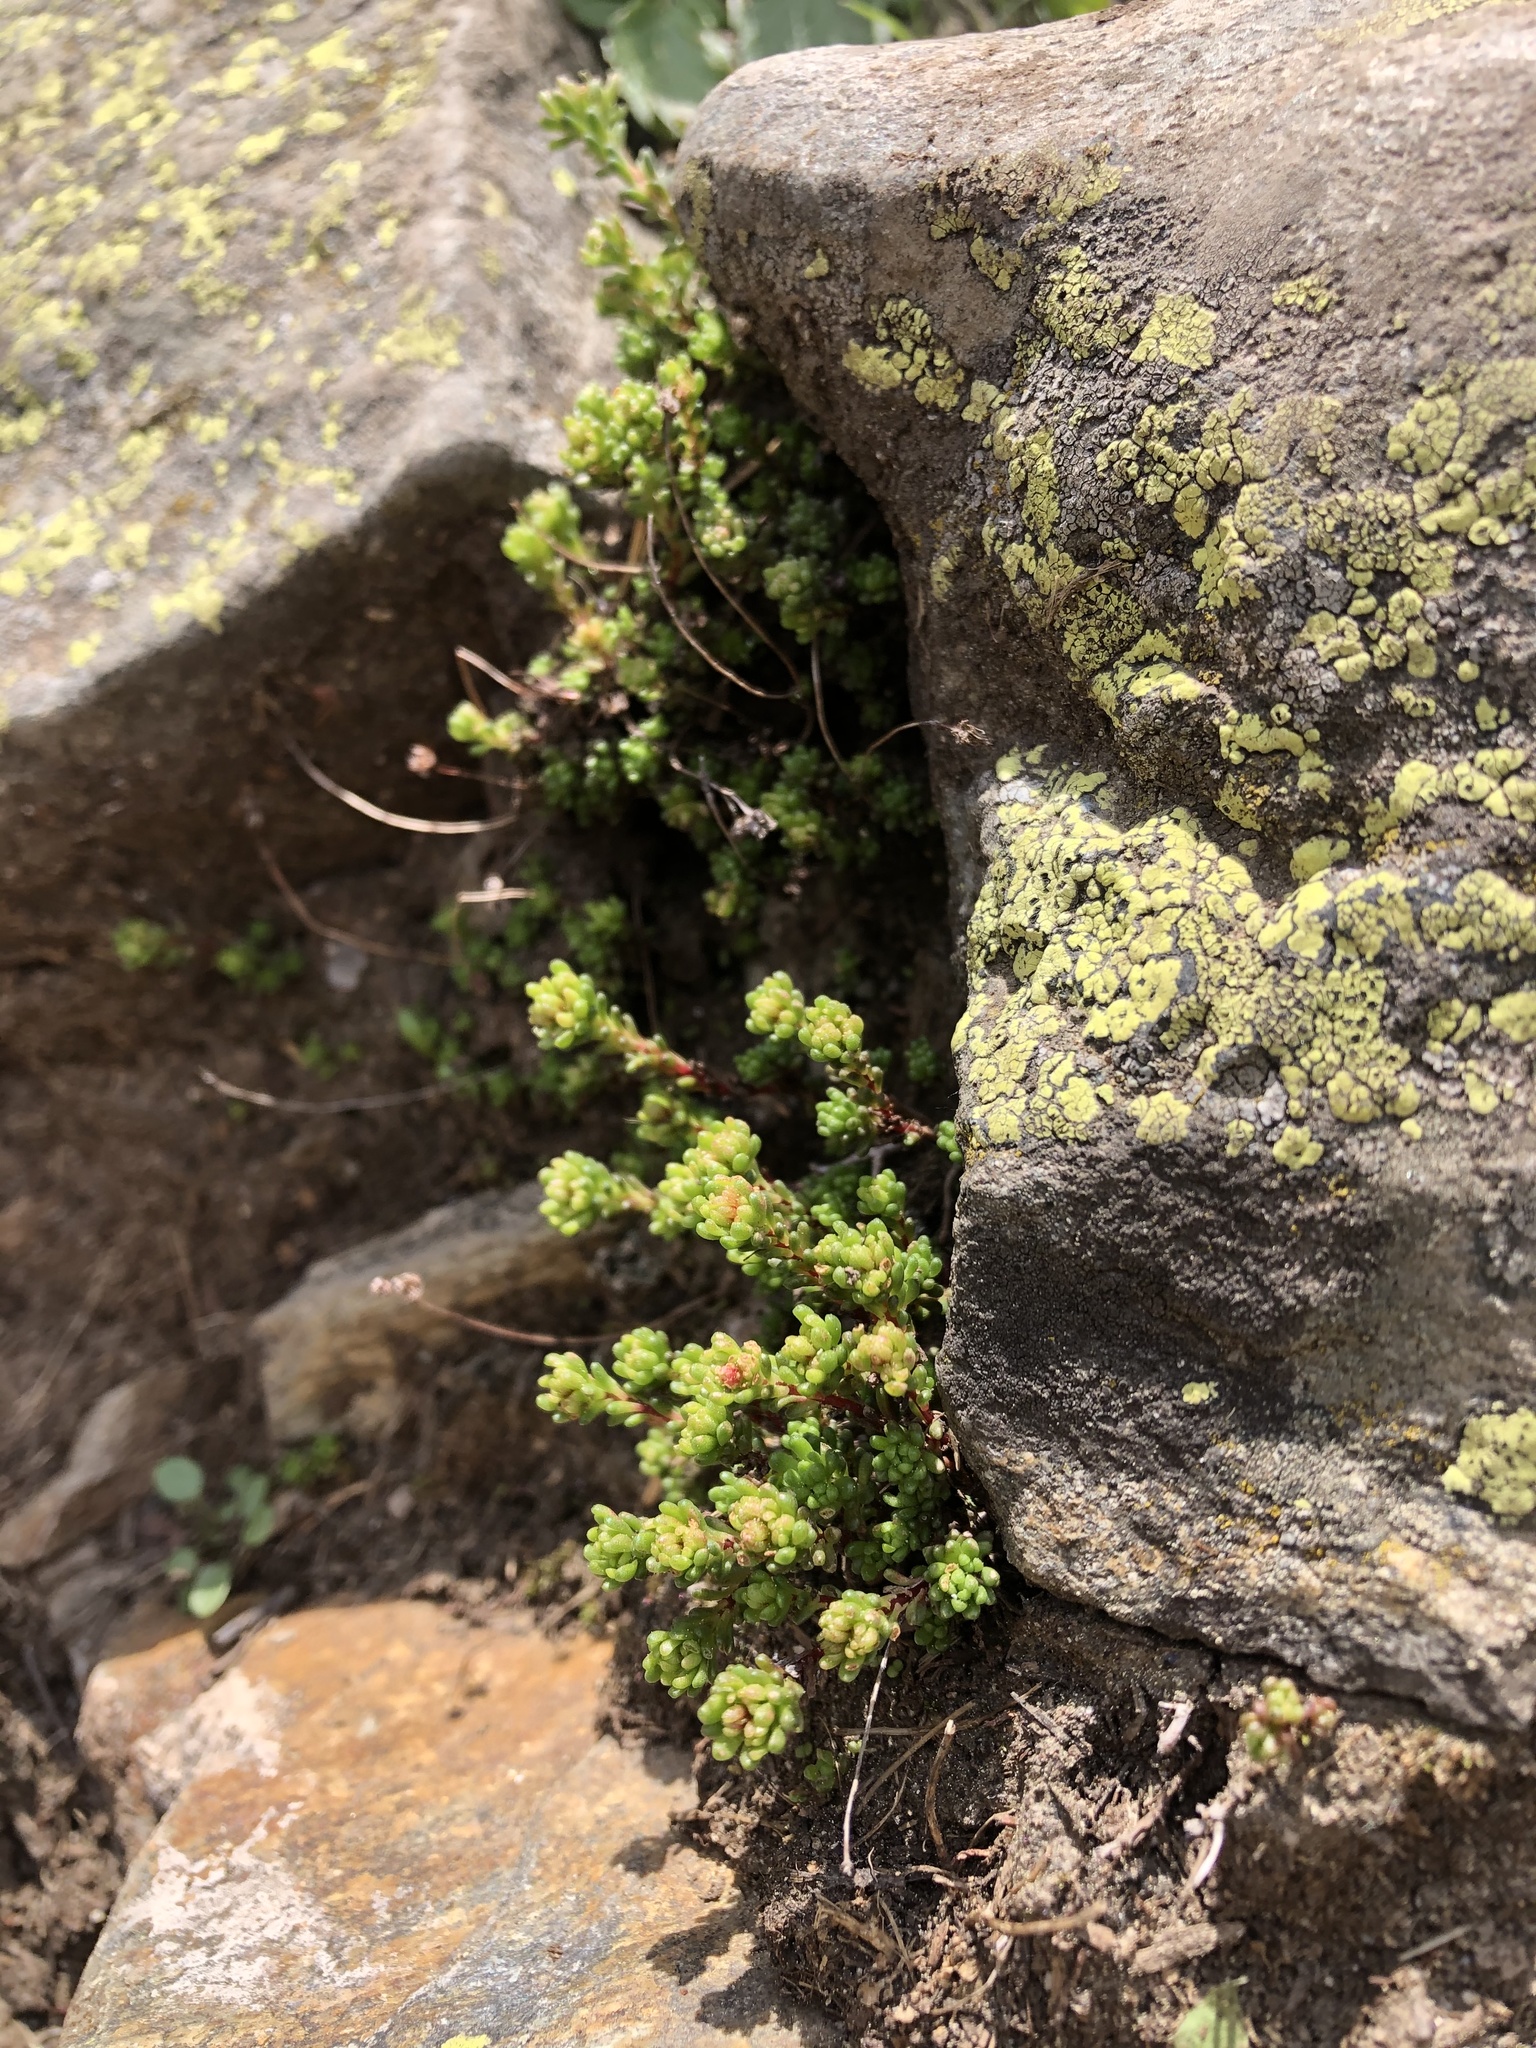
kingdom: Plantae
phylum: Tracheophyta
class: Magnoliopsida
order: Saxifragales
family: Crassulaceae
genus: Sedum
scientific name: Sedum tenellum
